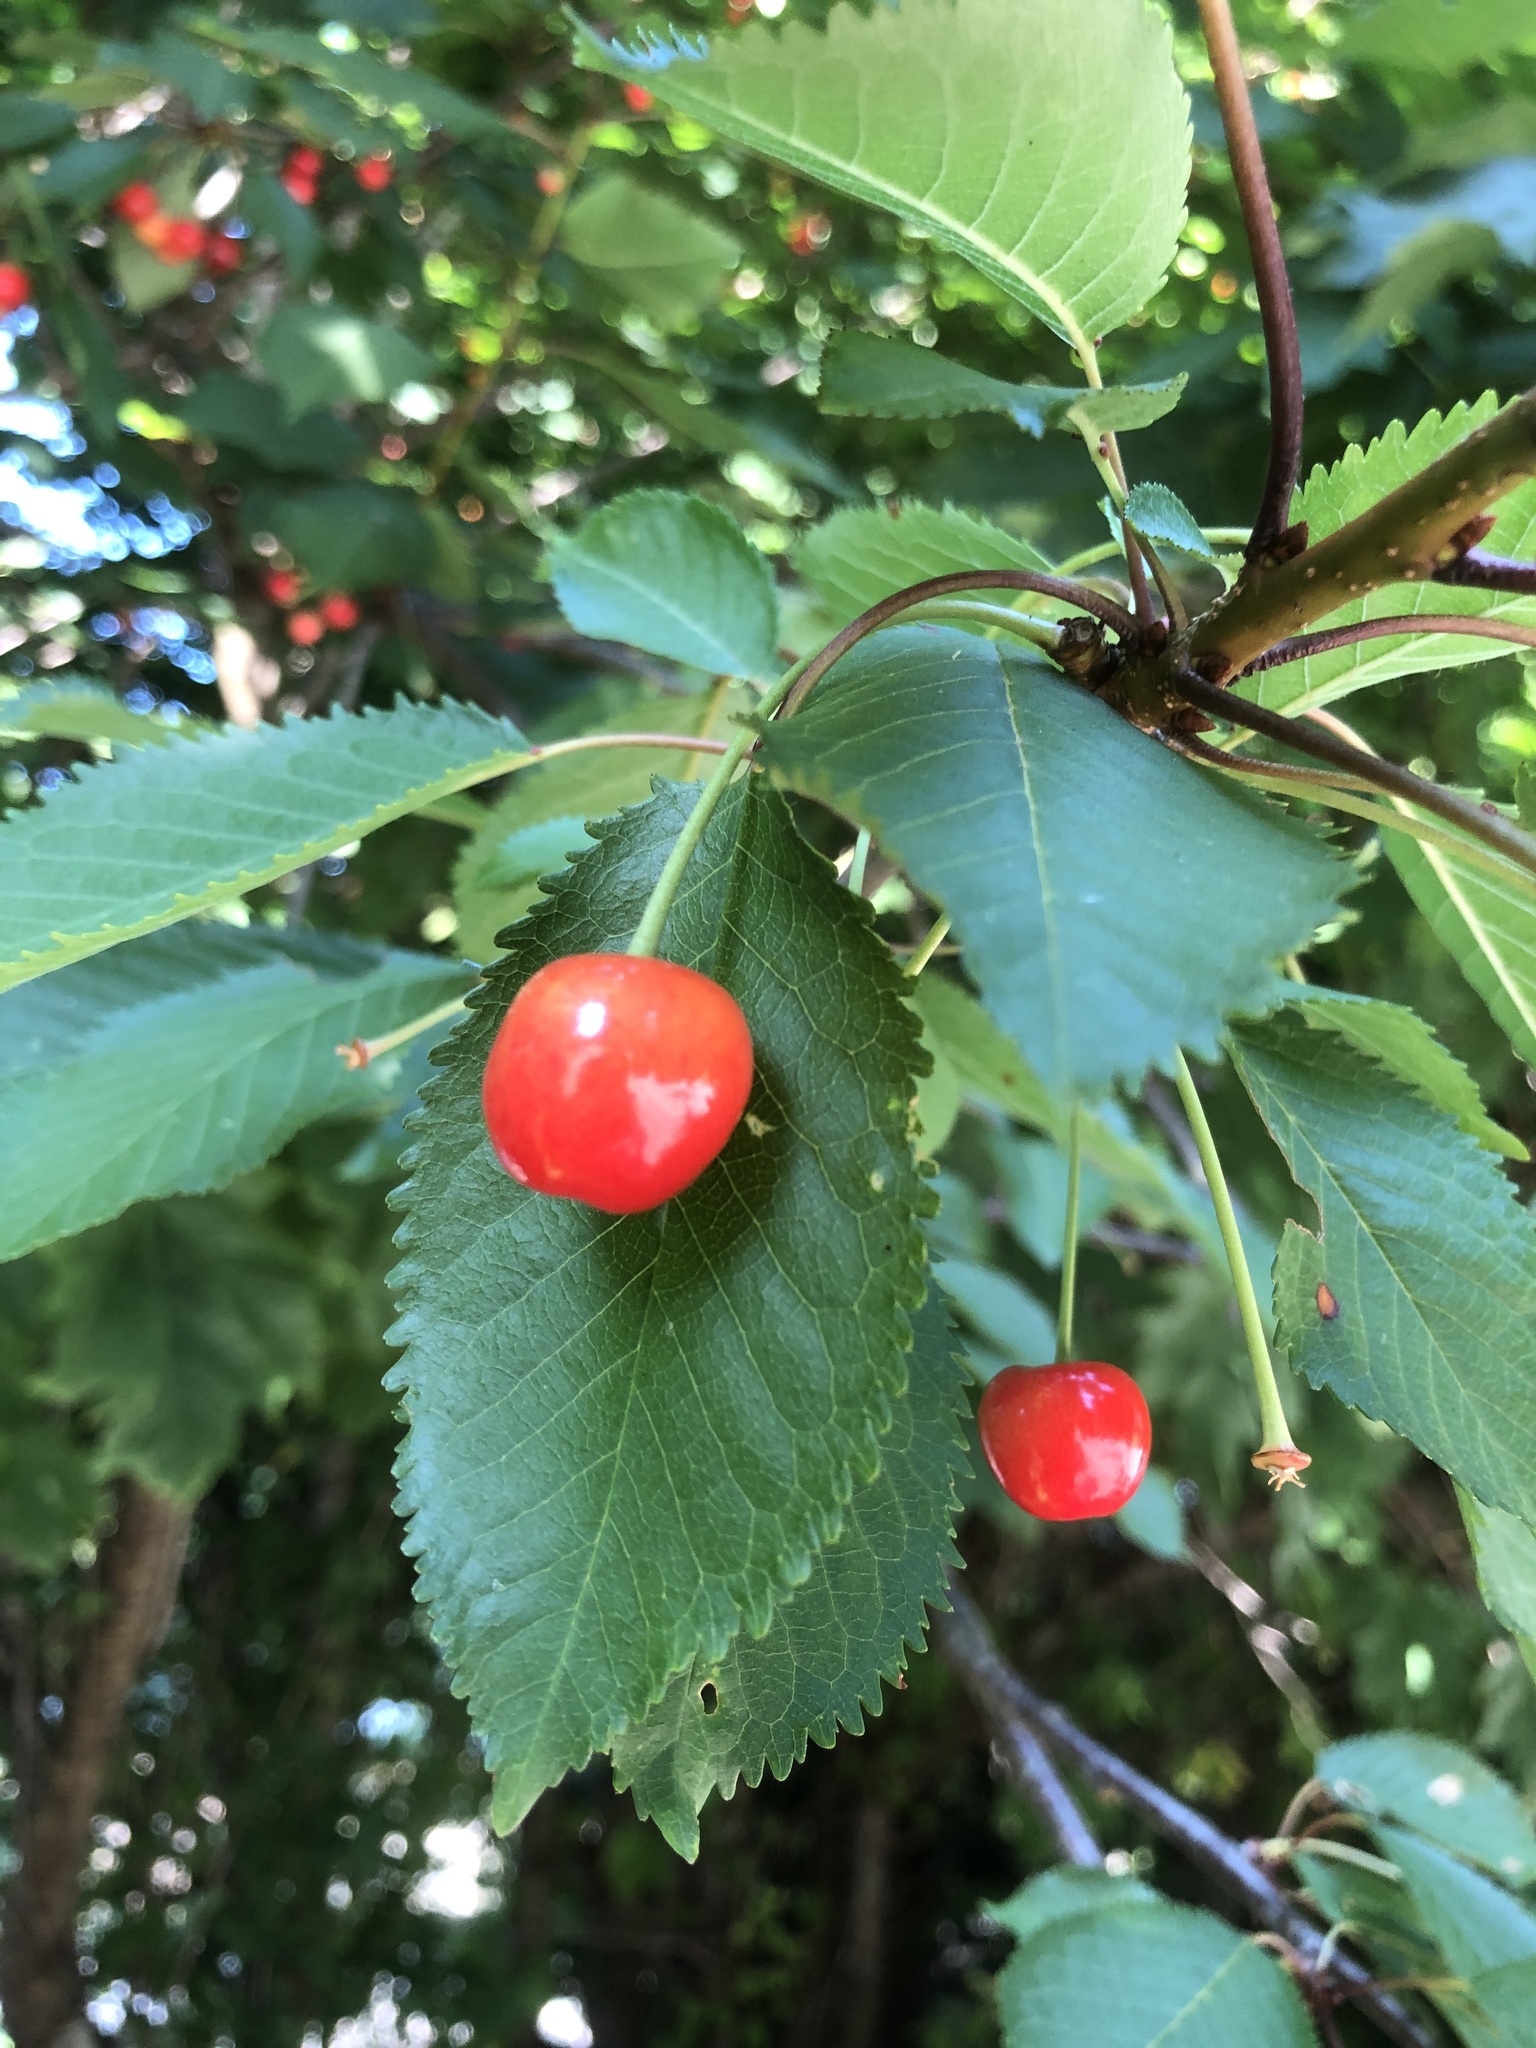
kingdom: Plantae
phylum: Tracheophyta
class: Magnoliopsida
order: Rosales
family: Rosaceae
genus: Prunus
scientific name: Prunus avium
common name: Sweet cherry
